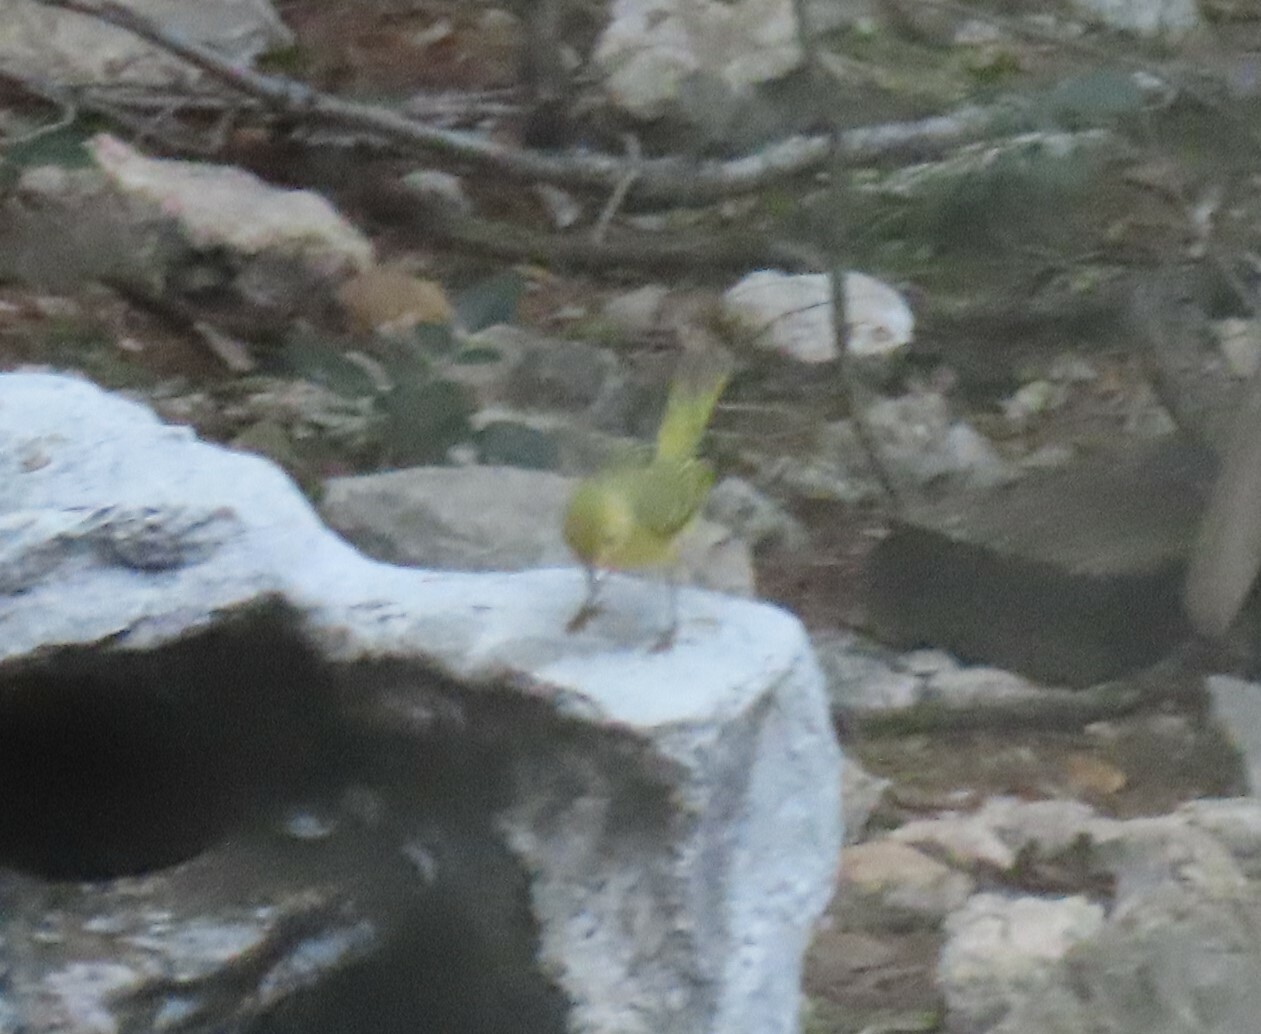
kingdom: Animalia
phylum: Chordata
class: Aves
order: Passeriformes
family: Parulidae
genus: Setophaga
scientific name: Setophaga petechia
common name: Yellow warbler
